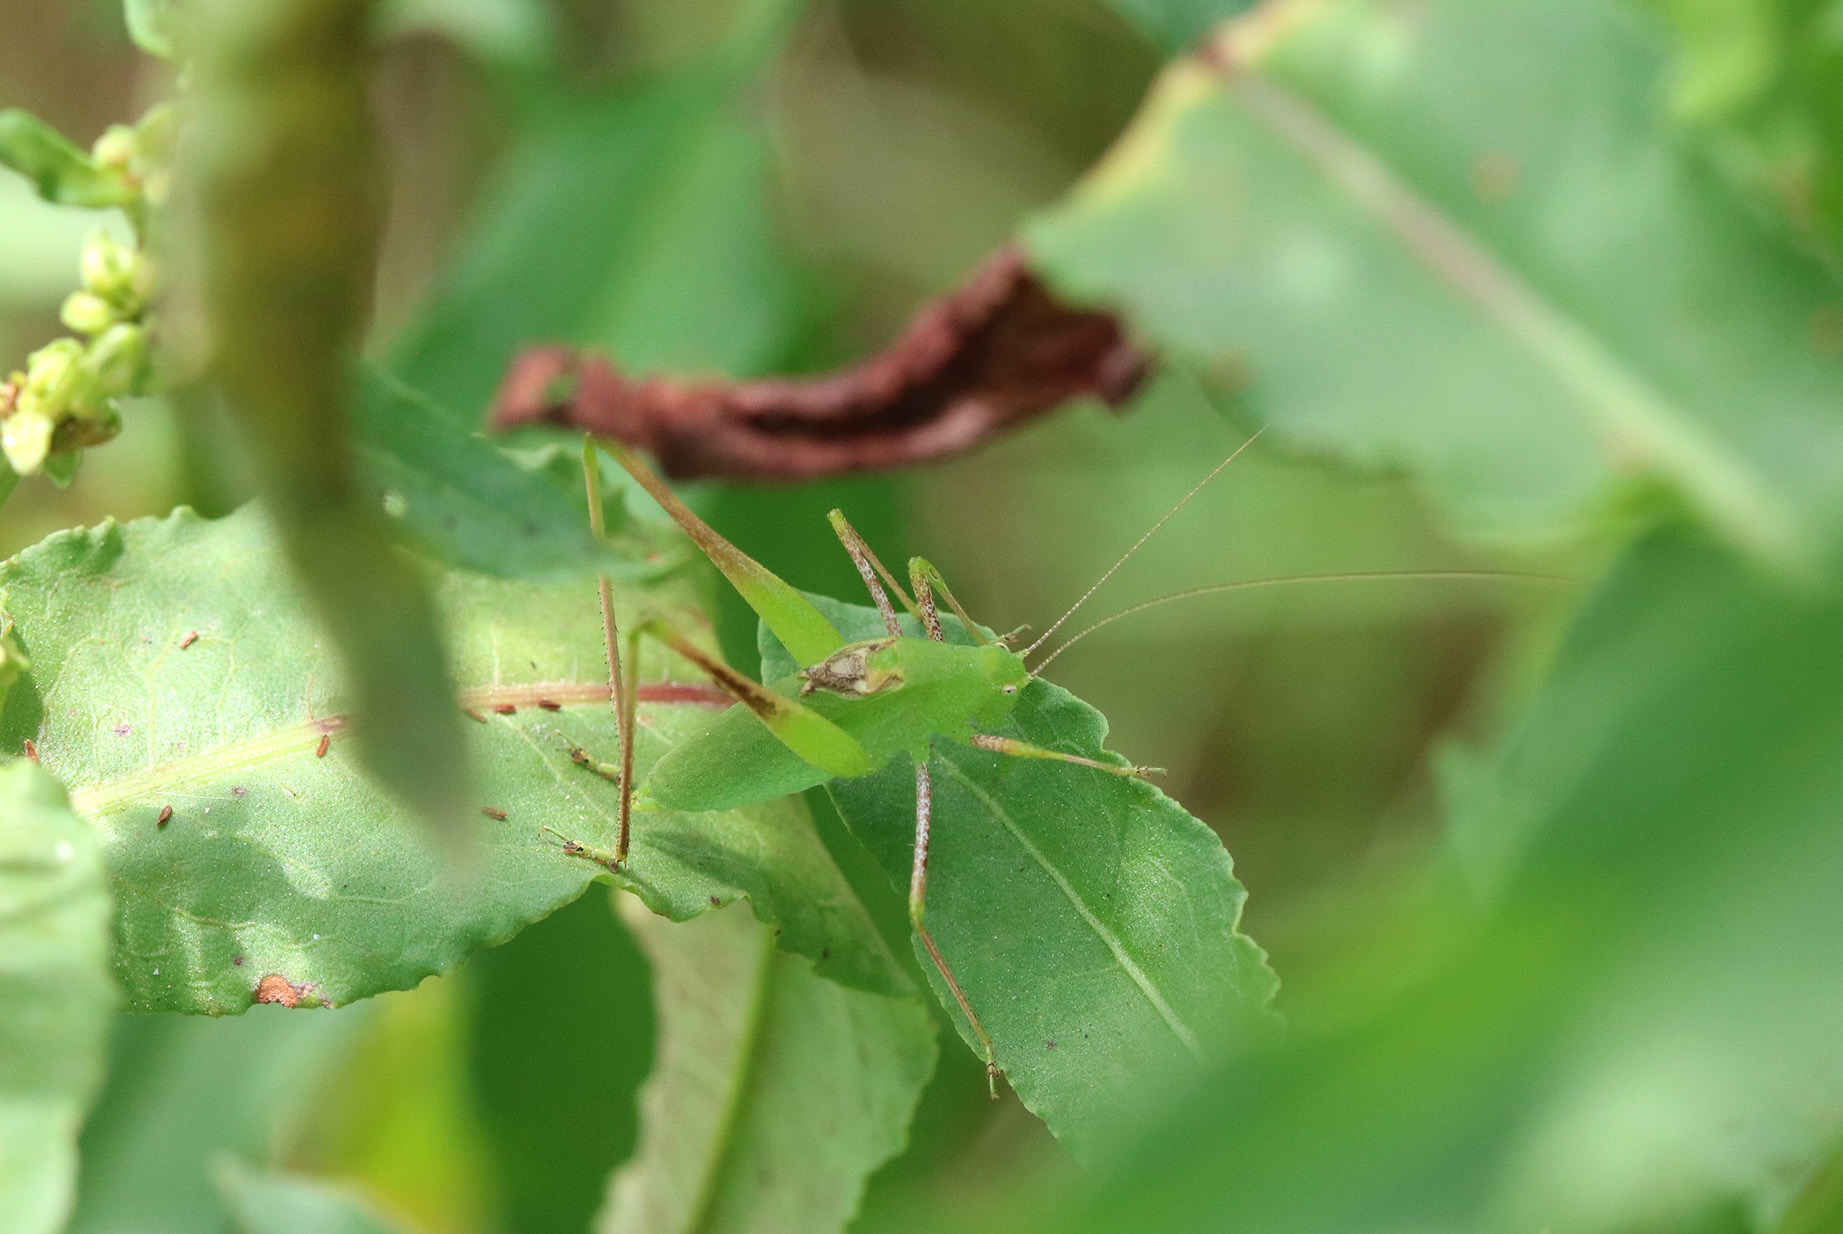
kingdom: Animalia
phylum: Arthropoda
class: Insecta
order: Orthoptera
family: Tettigoniidae
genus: Anisophya
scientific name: Anisophya
